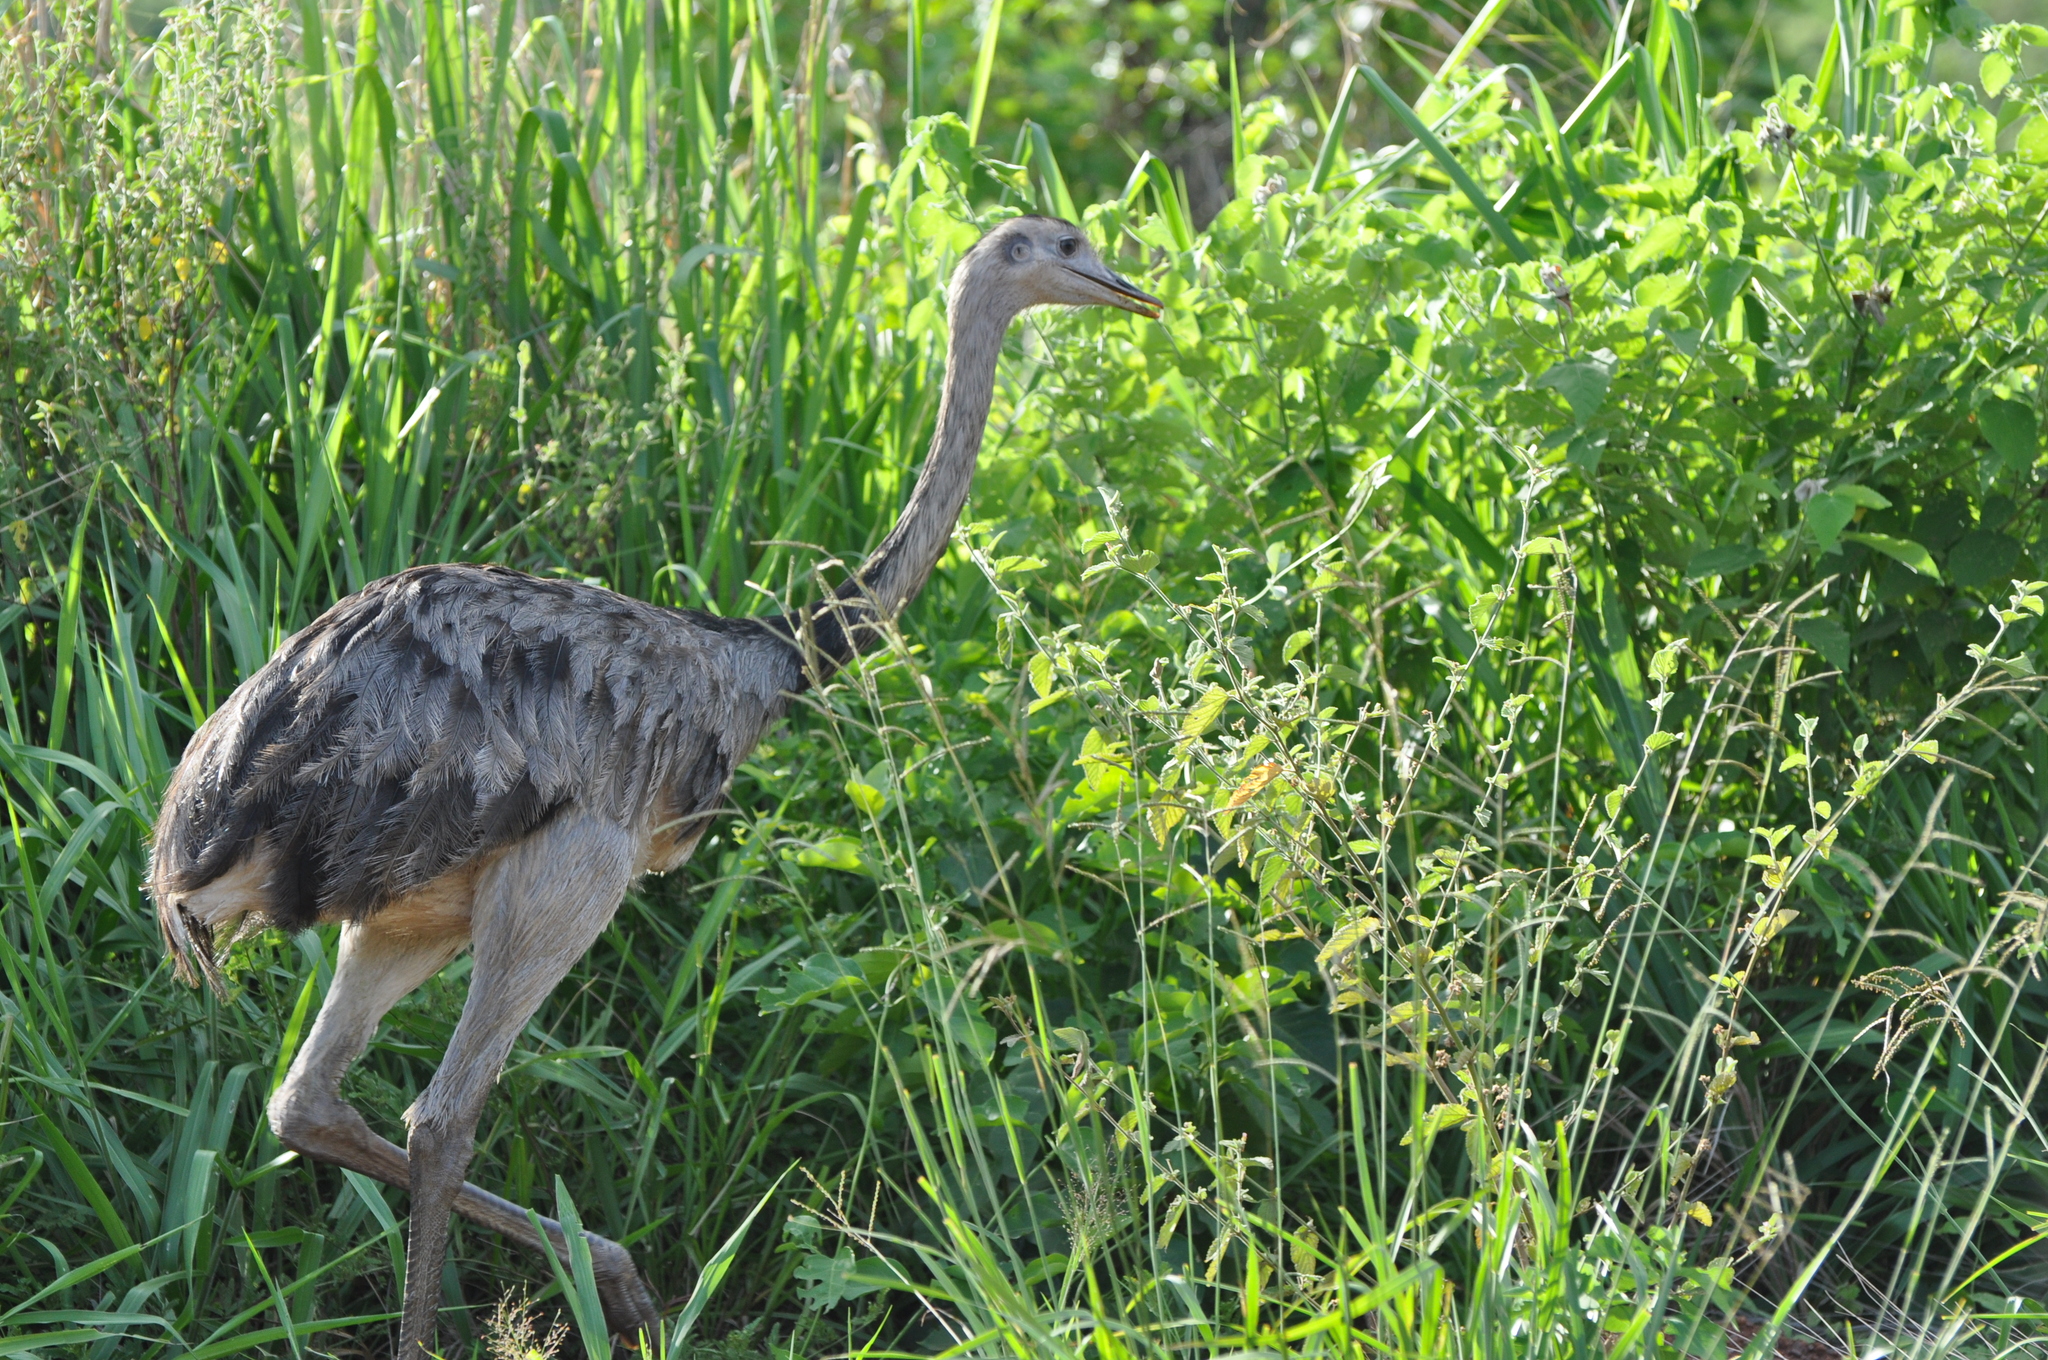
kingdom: Animalia
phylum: Chordata
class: Aves
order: Rheiformes
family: Rheidae
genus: Rhea
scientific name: Rhea americana
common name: Greater rhea
